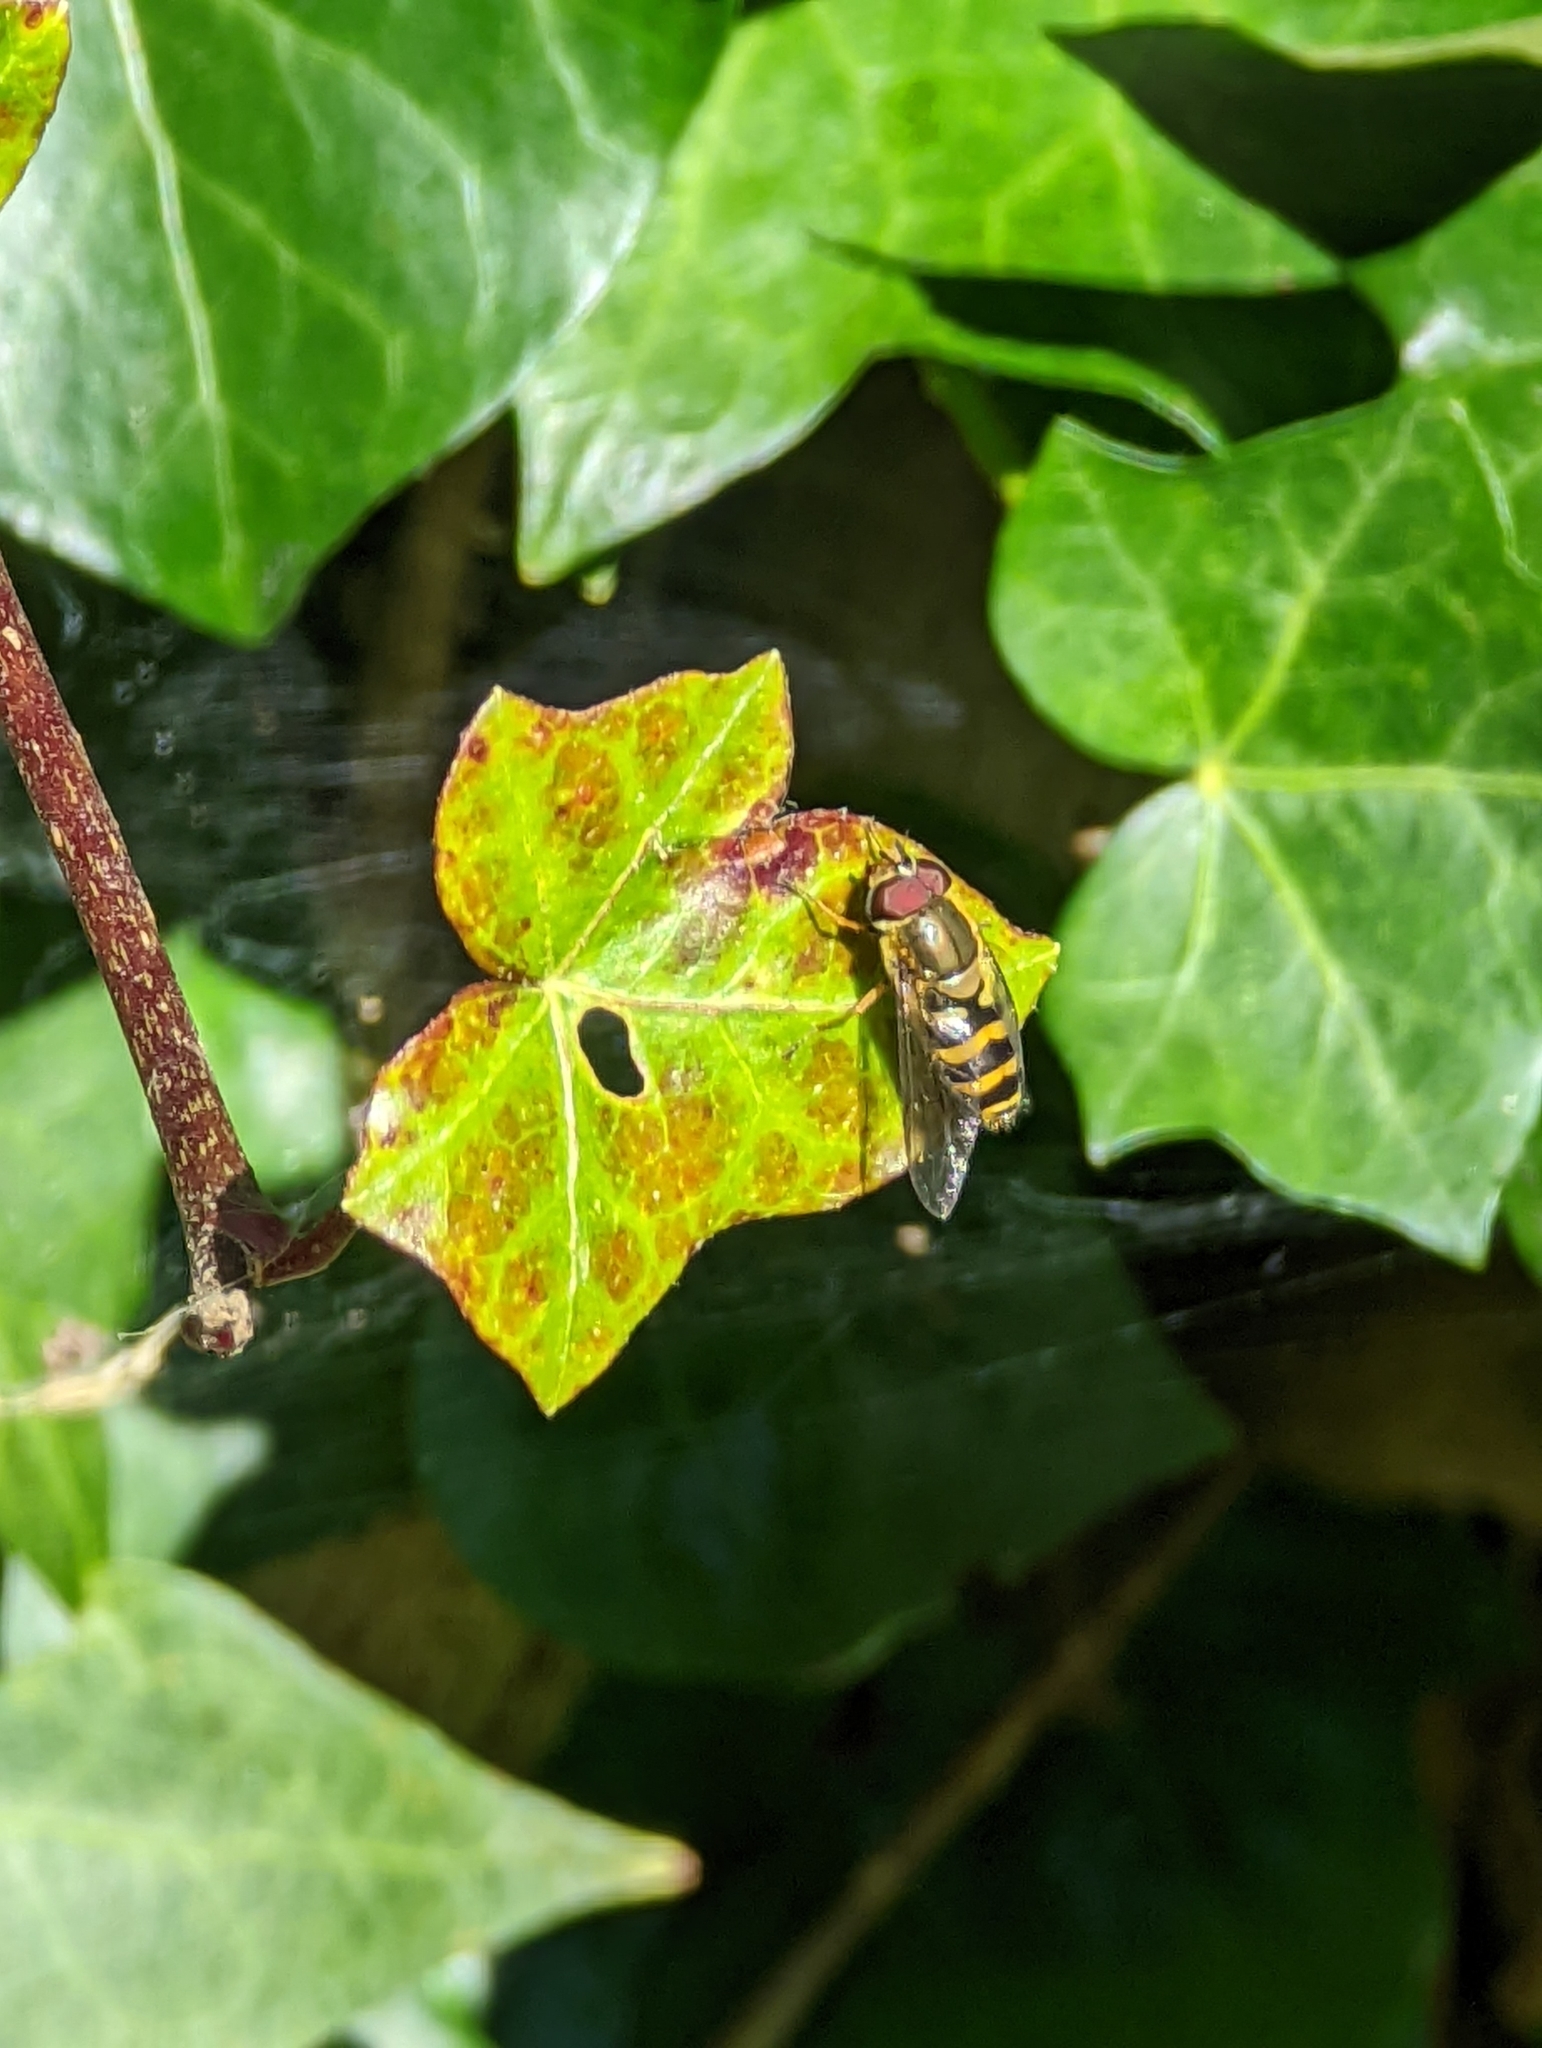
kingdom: Animalia
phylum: Arthropoda
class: Insecta
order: Diptera
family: Syrphidae
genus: Syrphus
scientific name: Syrphus
